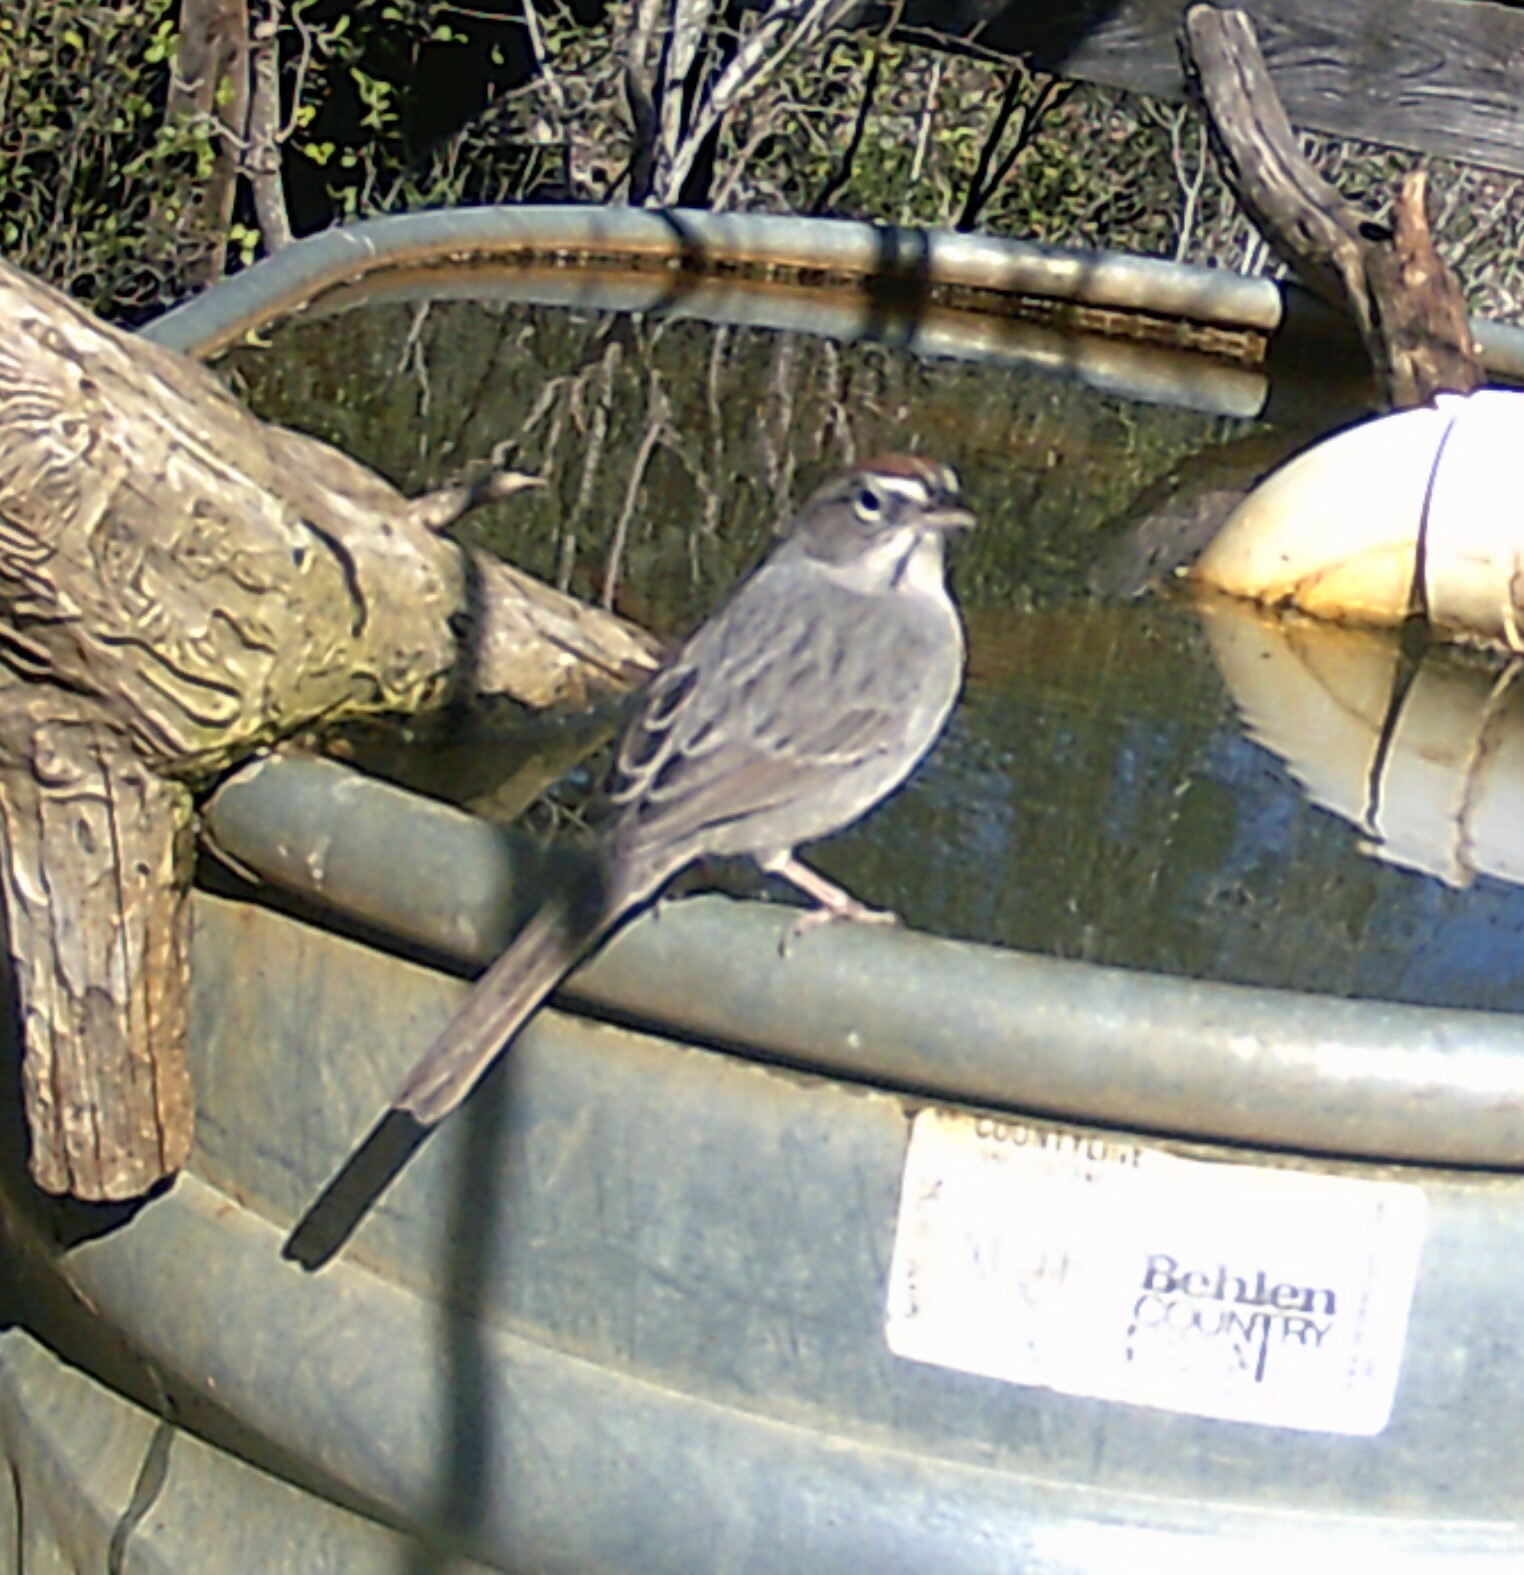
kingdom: Animalia
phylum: Chordata
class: Aves
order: Passeriformes
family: Passerellidae
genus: Aimophila
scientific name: Aimophila ruficeps
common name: Rufous-crowned sparrow
